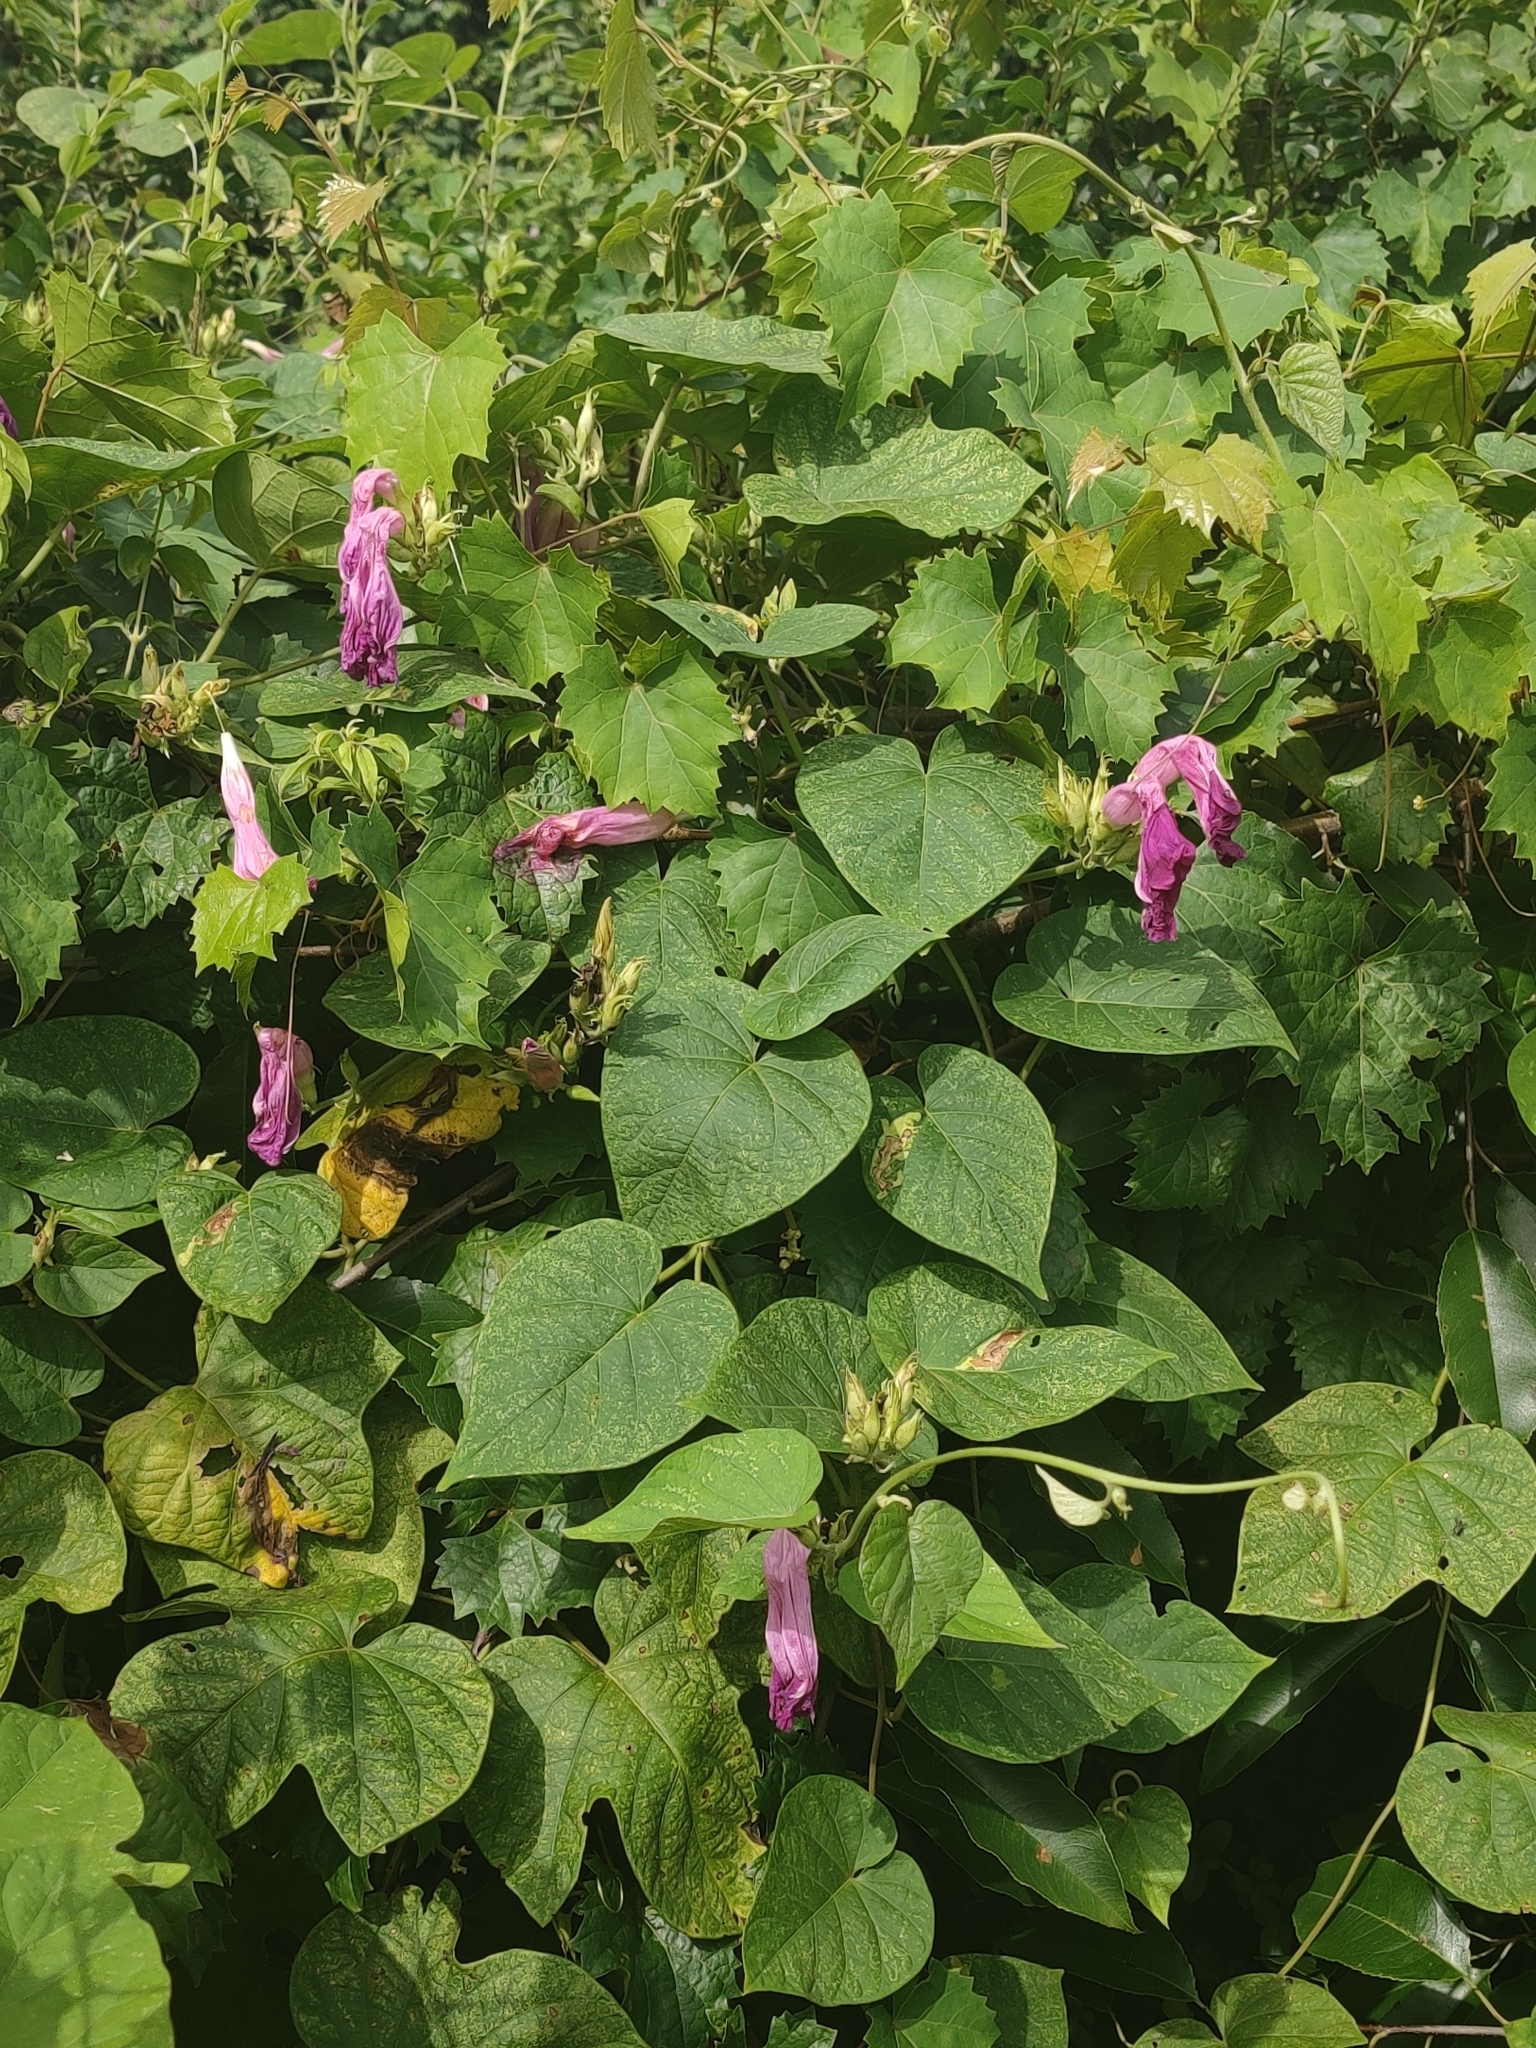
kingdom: Plantae
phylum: Tracheophyta
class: Magnoliopsida
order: Solanales
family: Convolvulaceae
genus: Ipomoea
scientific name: Ipomoea indica
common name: Blue dawnflower
